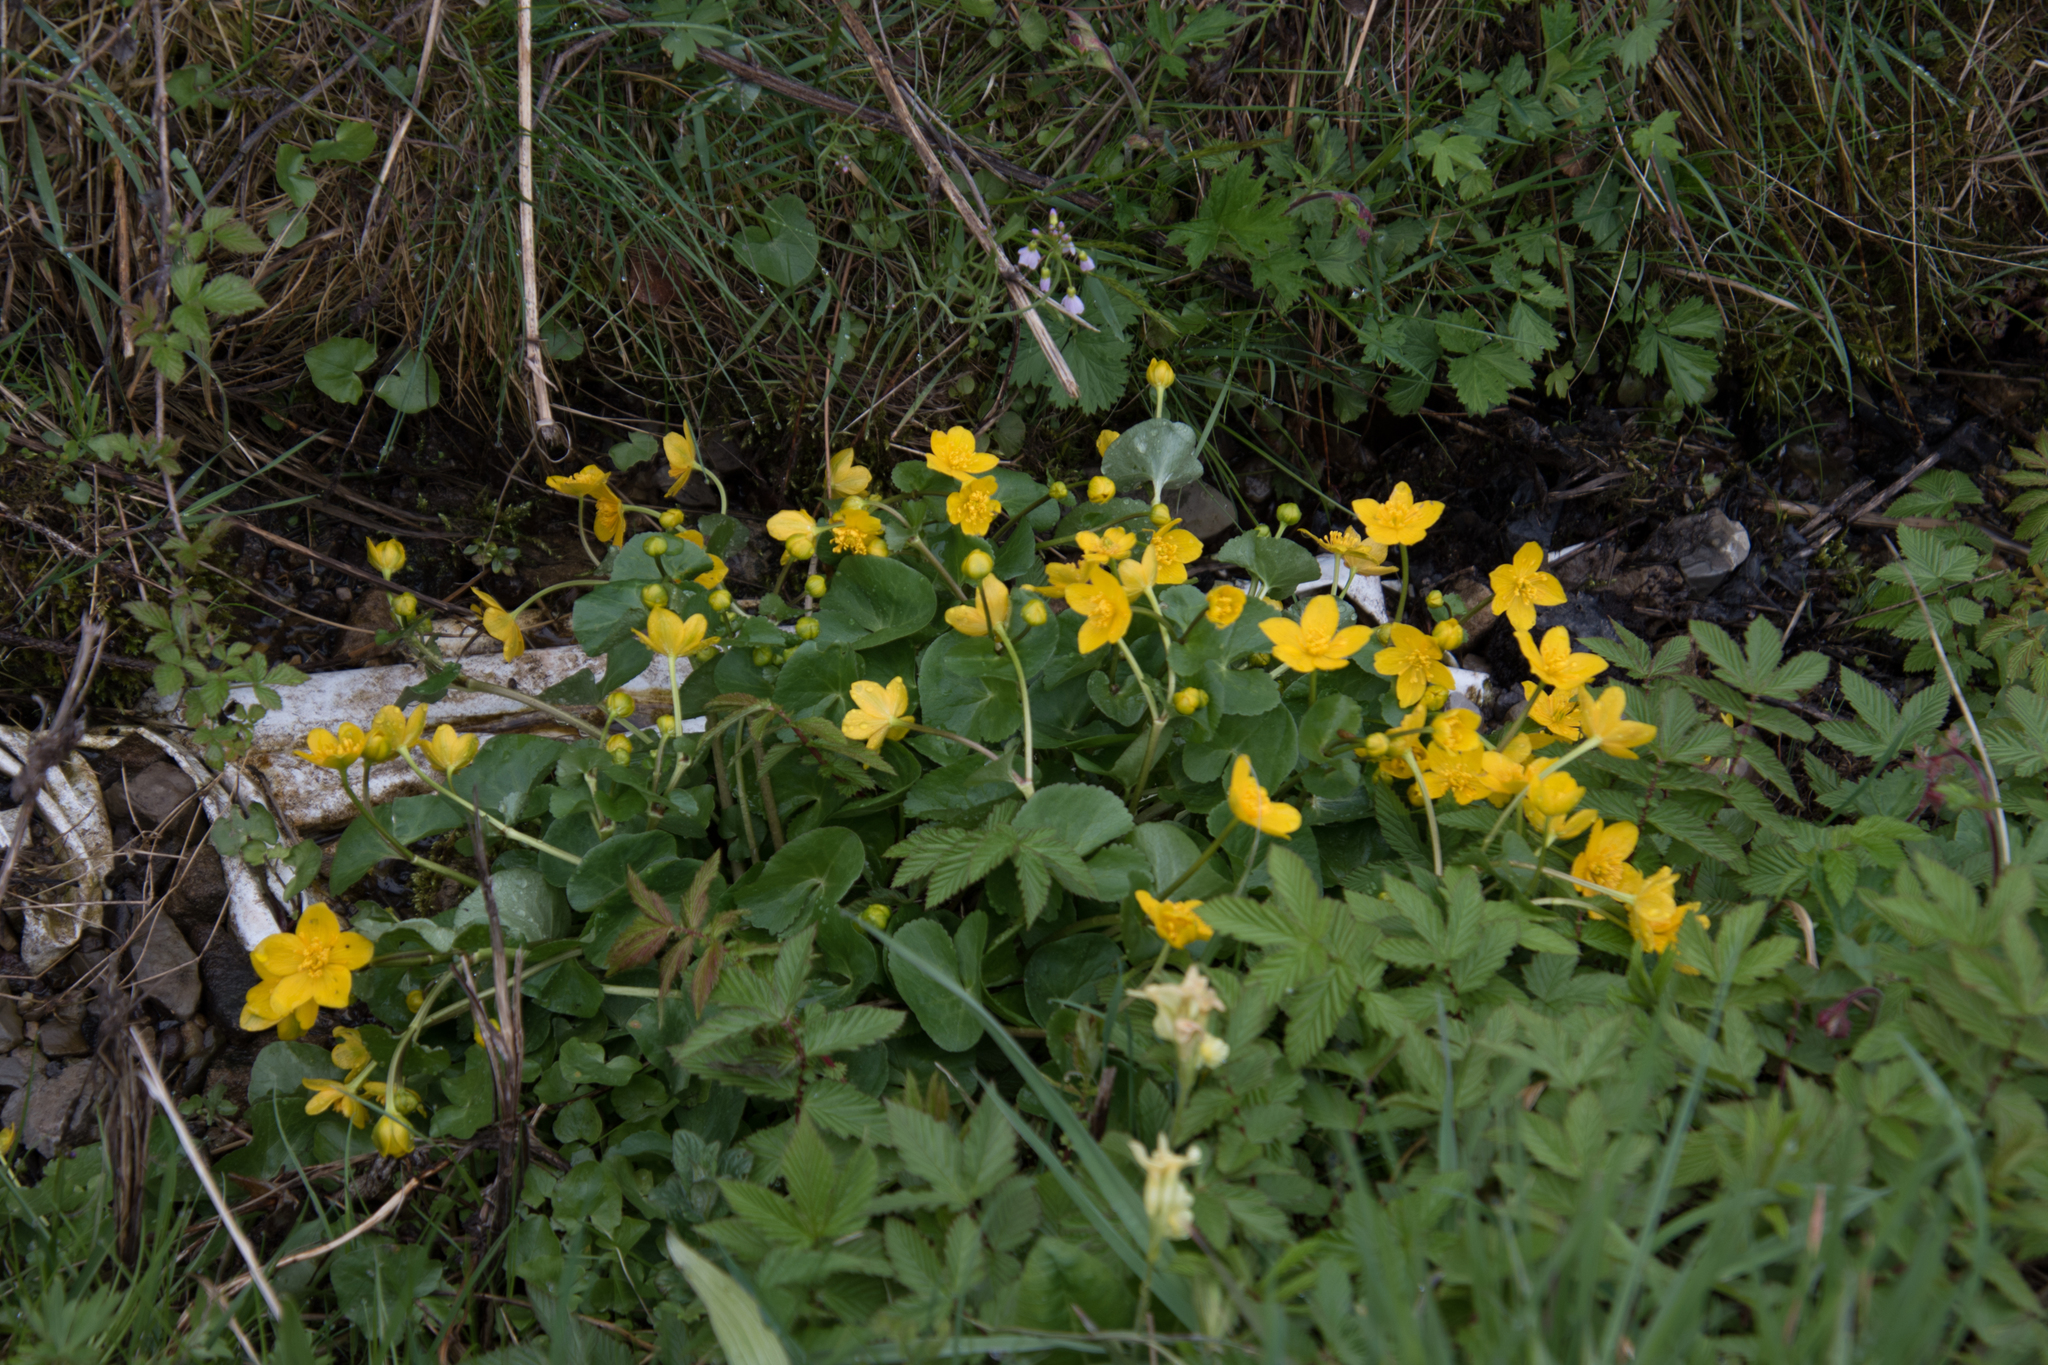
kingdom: Plantae
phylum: Tracheophyta
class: Magnoliopsida
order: Ranunculales
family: Ranunculaceae
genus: Caltha
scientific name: Caltha palustris
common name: Marsh marigold
